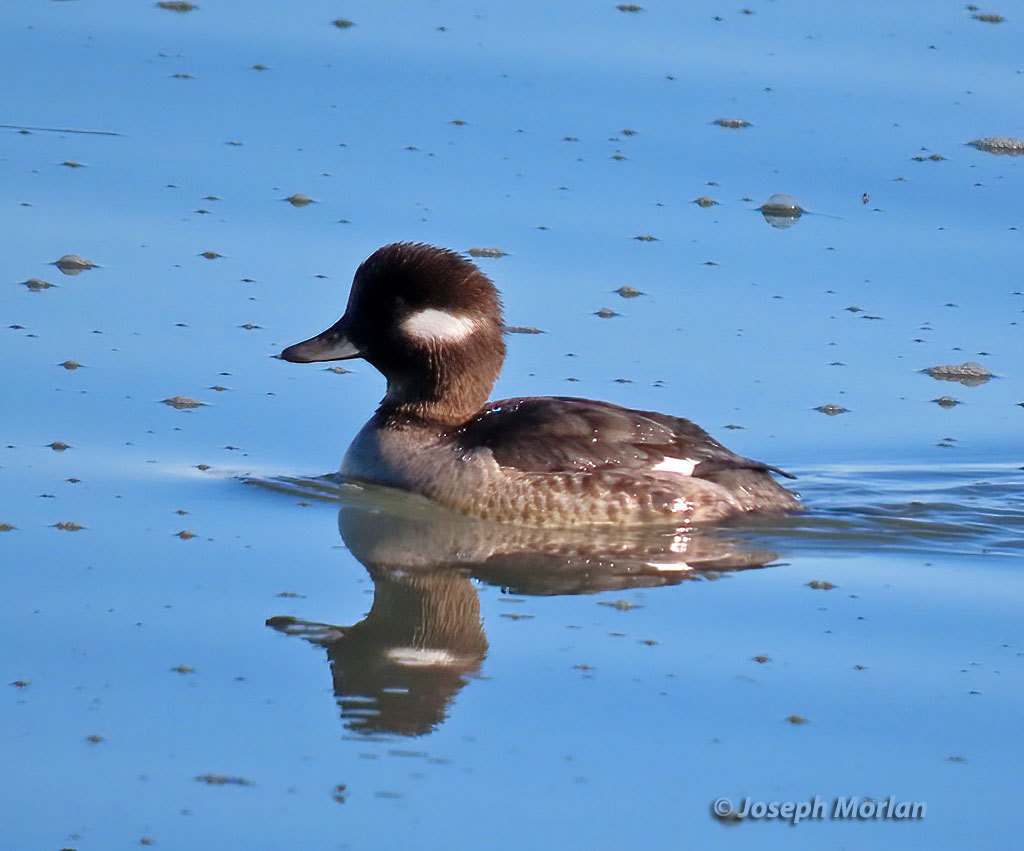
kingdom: Animalia
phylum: Chordata
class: Aves
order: Anseriformes
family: Anatidae
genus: Bucephala
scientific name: Bucephala albeola
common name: Bufflehead
